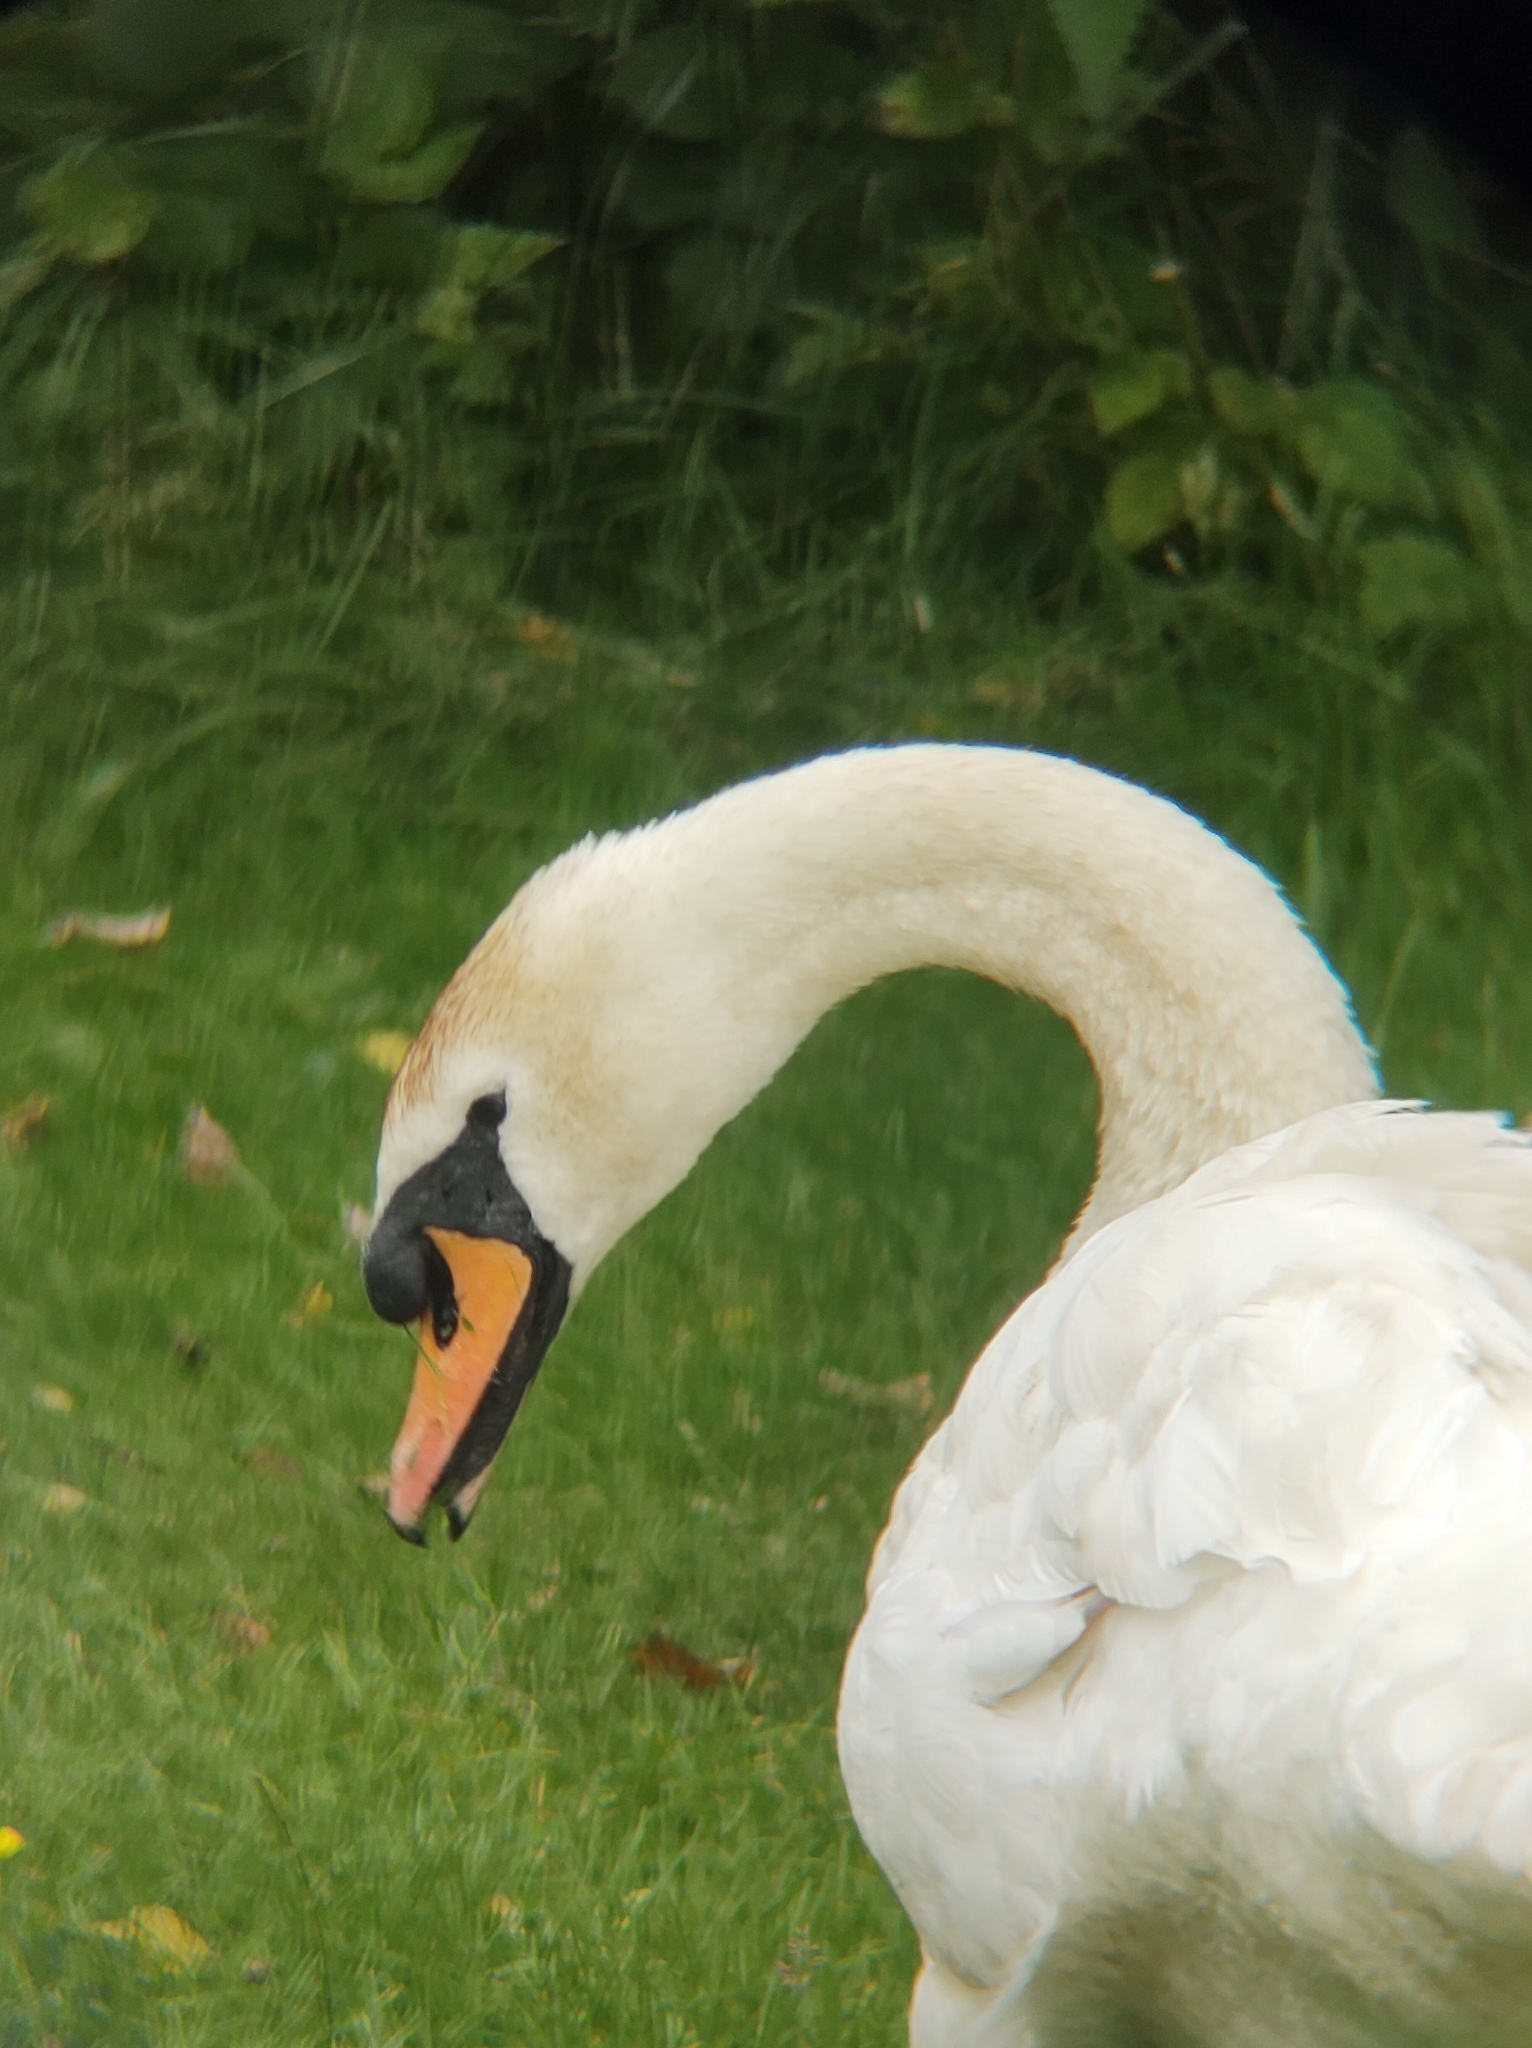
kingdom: Animalia
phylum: Chordata
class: Aves
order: Anseriformes
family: Anatidae
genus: Cygnus
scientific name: Cygnus olor
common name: Mute swan
